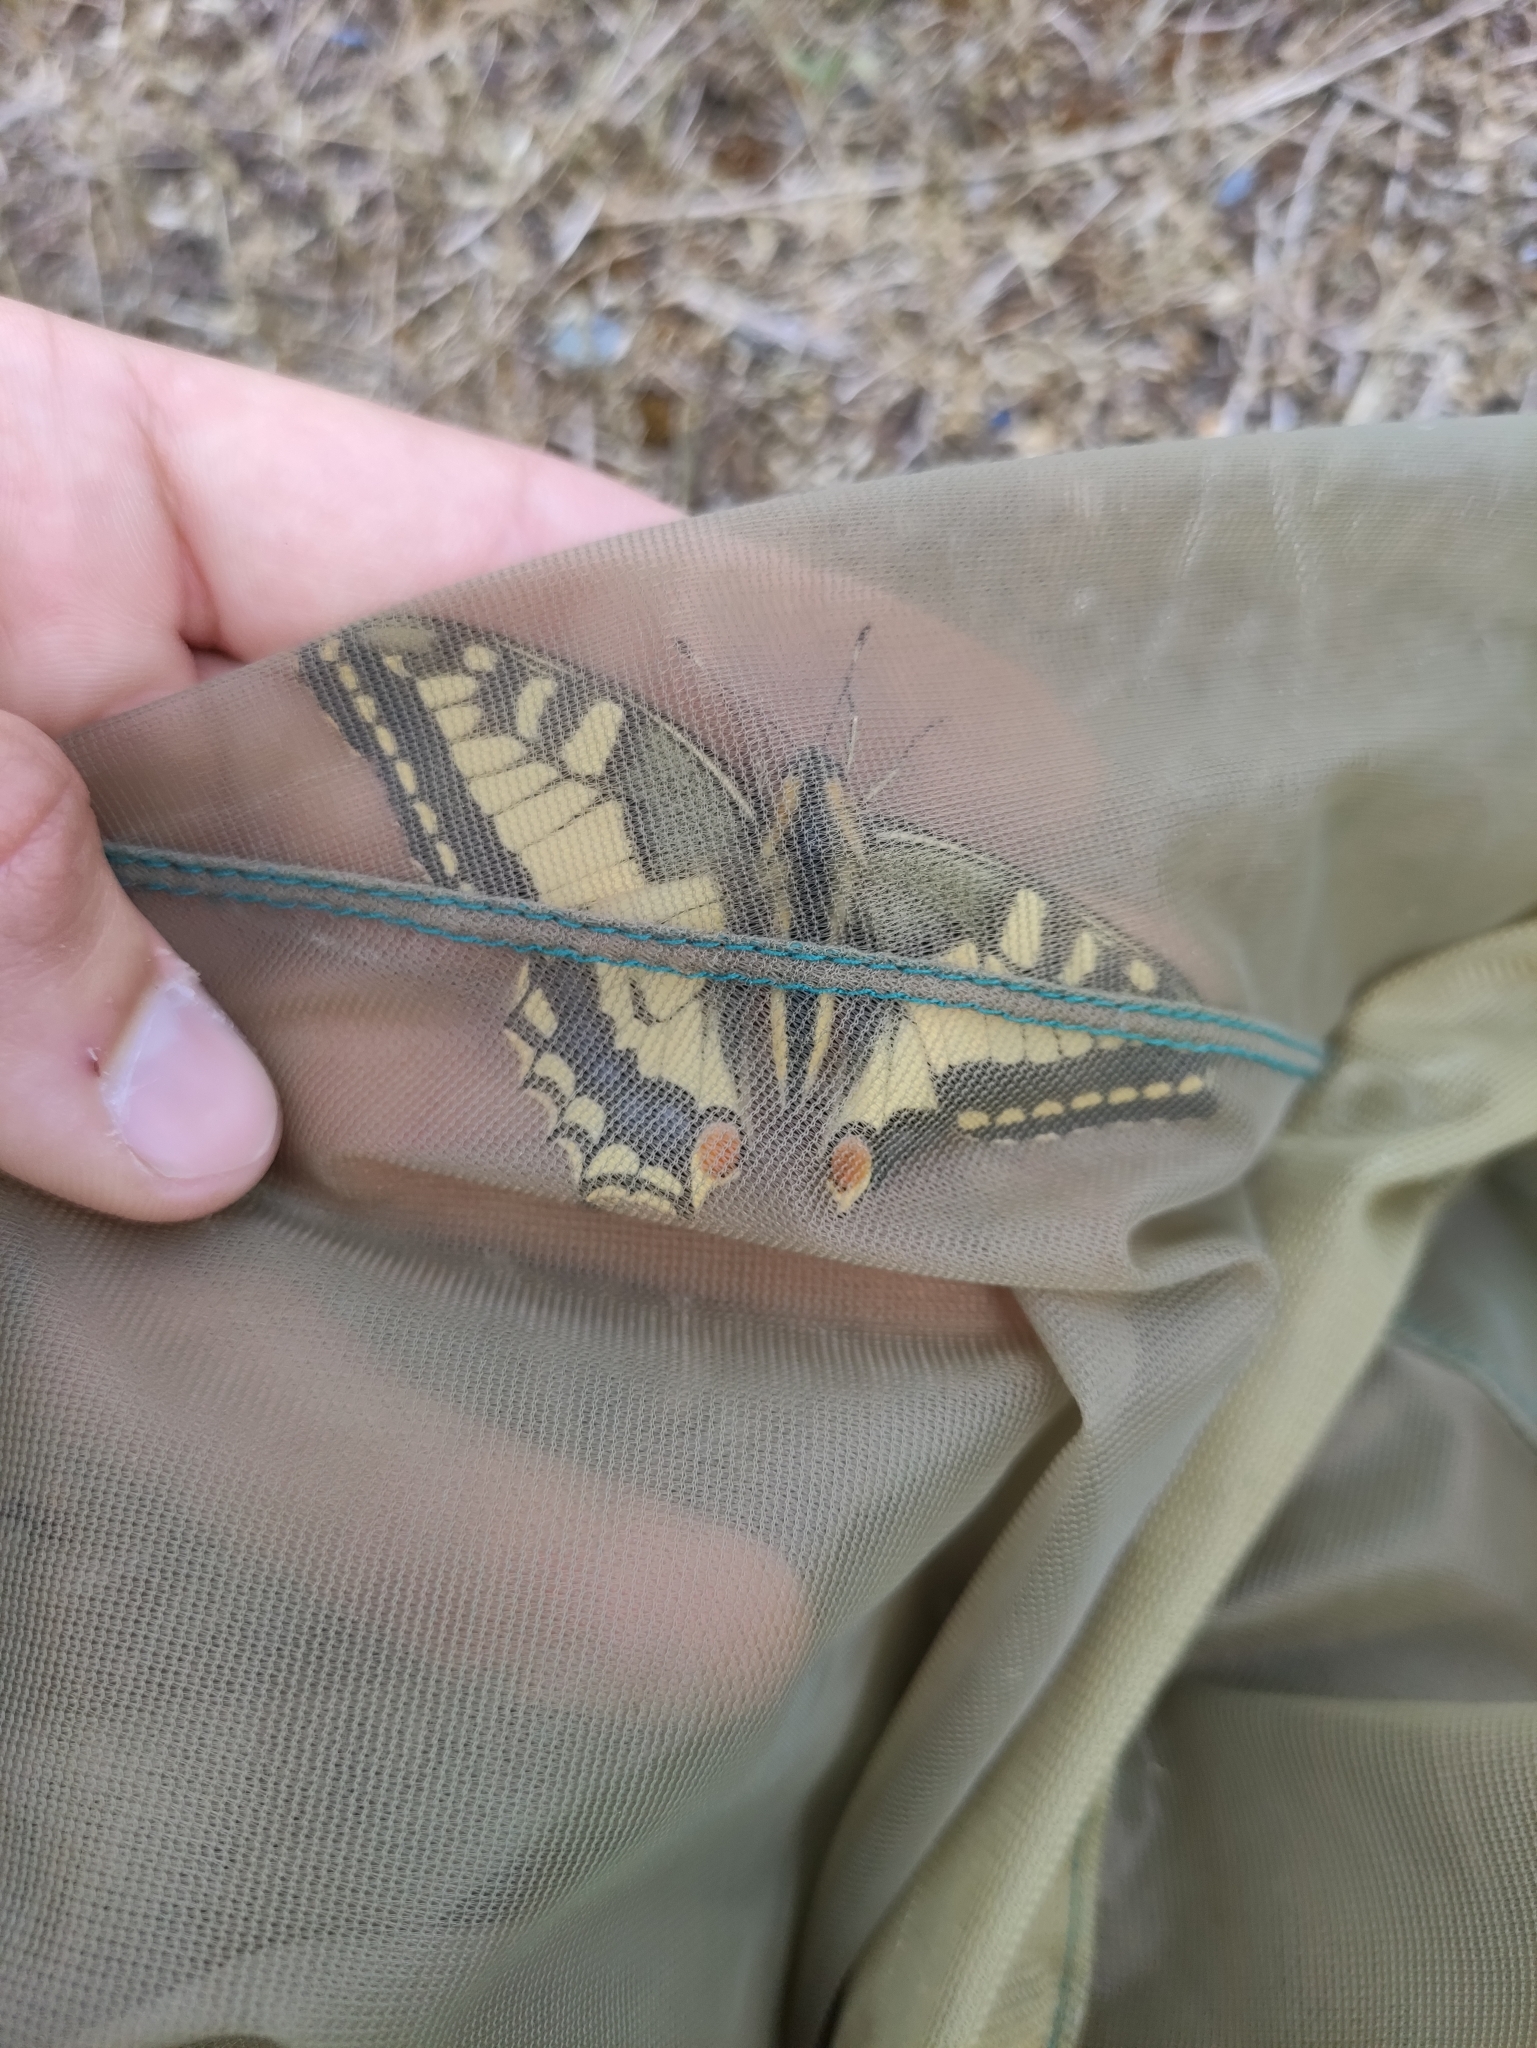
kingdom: Animalia
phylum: Arthropoda
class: Insecta
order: Lepidoptera
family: Papilionidae
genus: Papilio
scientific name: Papilio machaon
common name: Swallowtail
